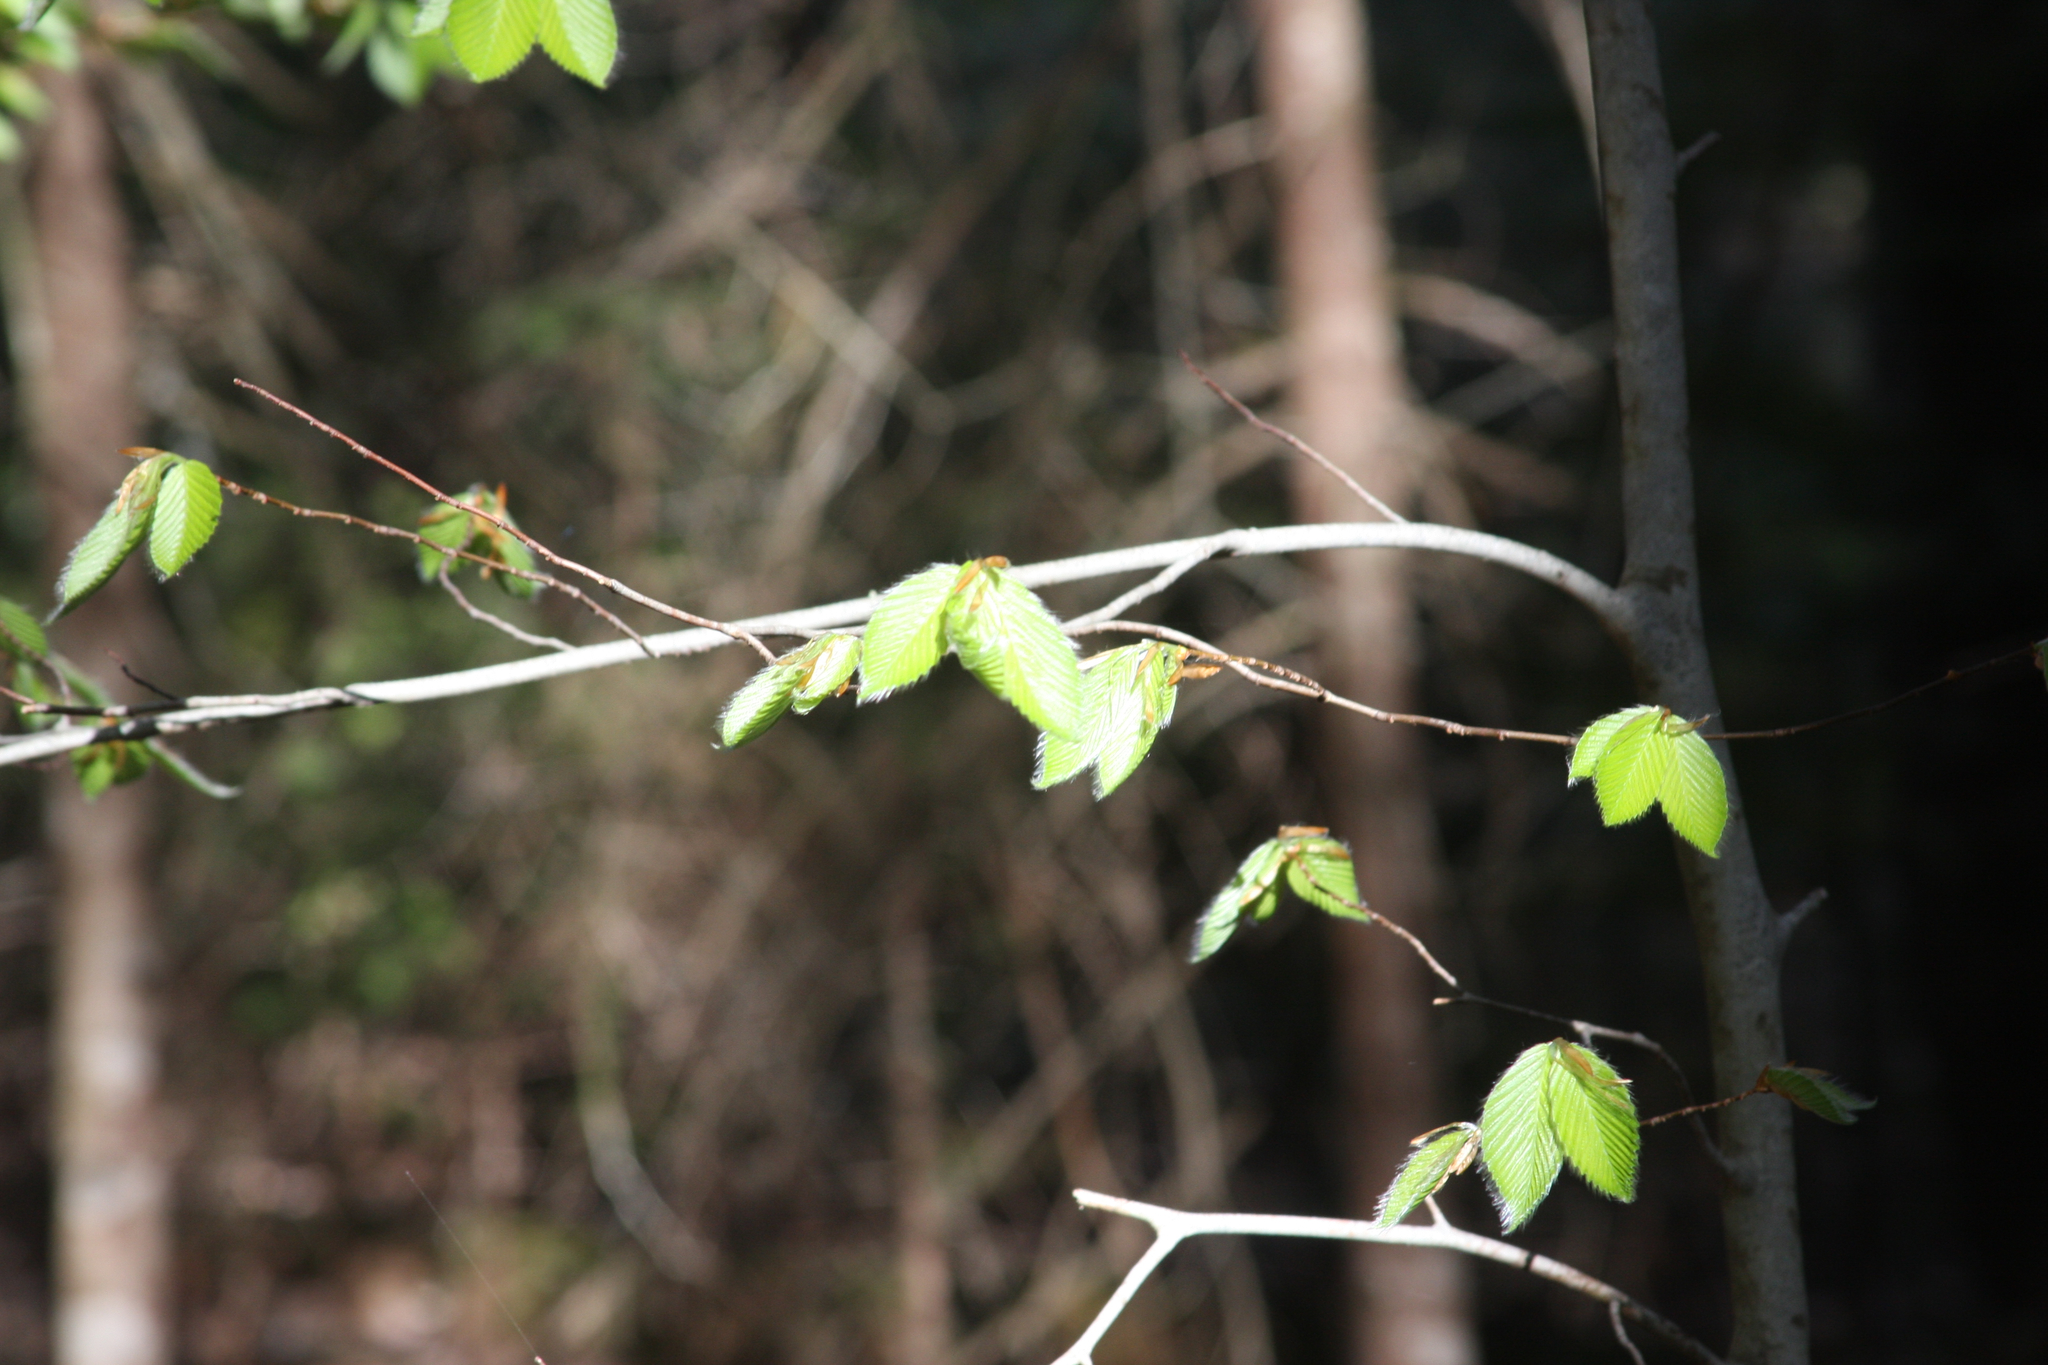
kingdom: Plantae
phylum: Tracheophyta
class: Magnoliopsida
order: Fagales
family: Fagaceae
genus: Fagus
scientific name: Fagus grandifolia
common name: American beech
